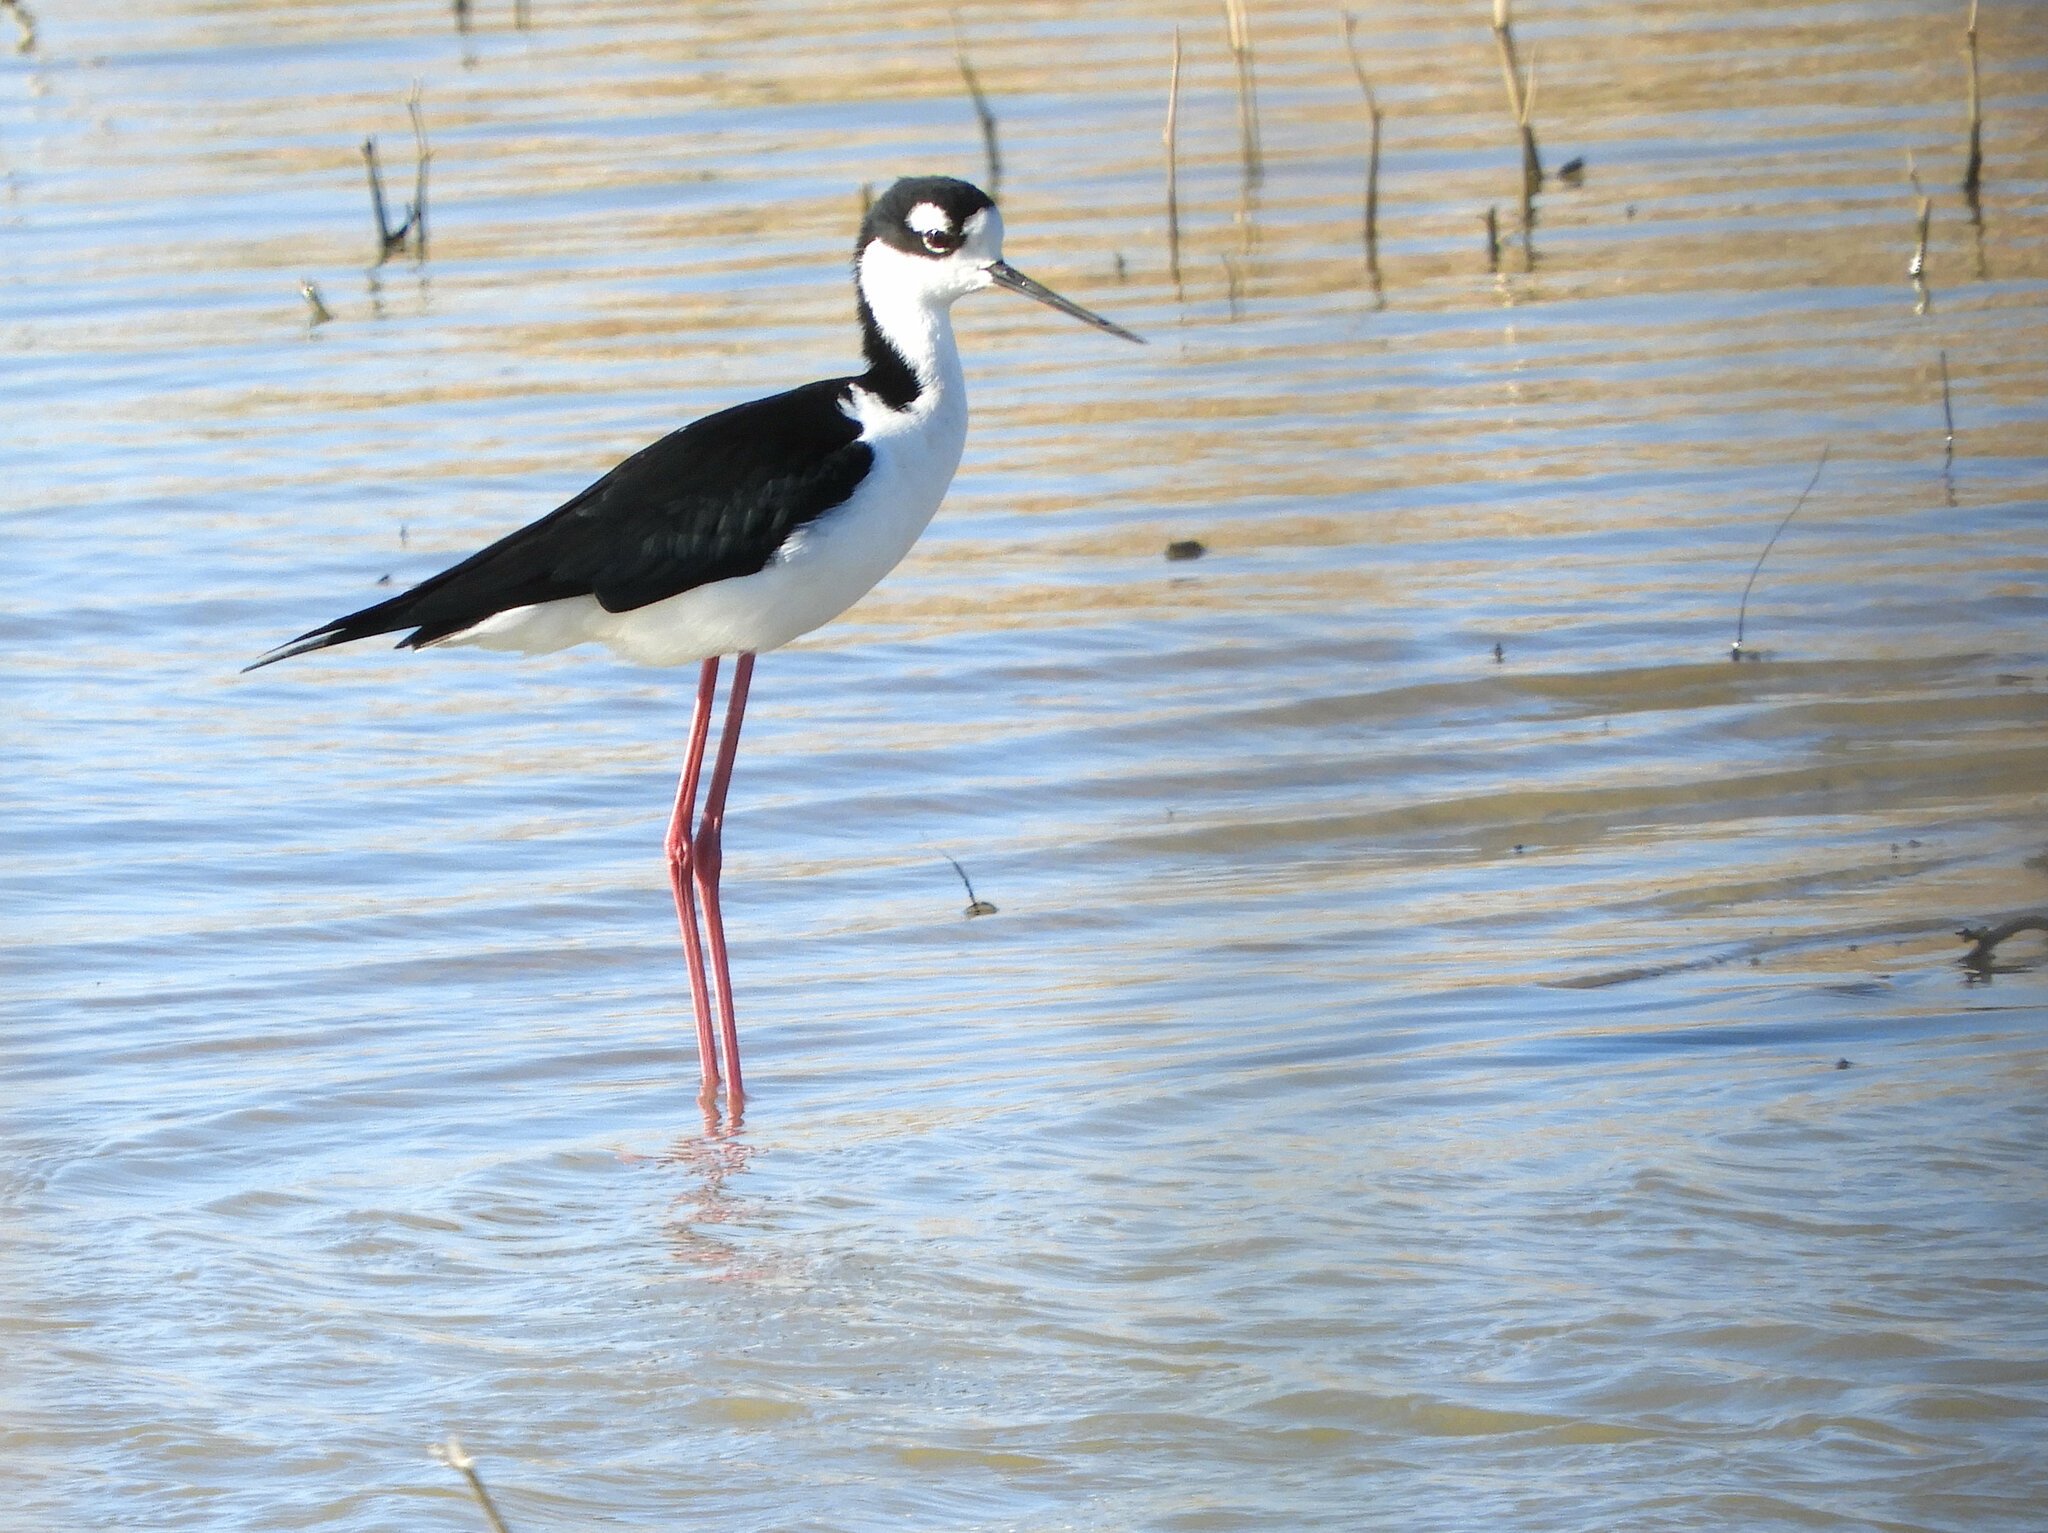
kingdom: Animalia
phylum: Chordata
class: Aves
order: Charadriiformes
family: Recurvirostridae
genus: Himantopus
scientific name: Himantopus mexicanus
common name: Black-necked stilt
